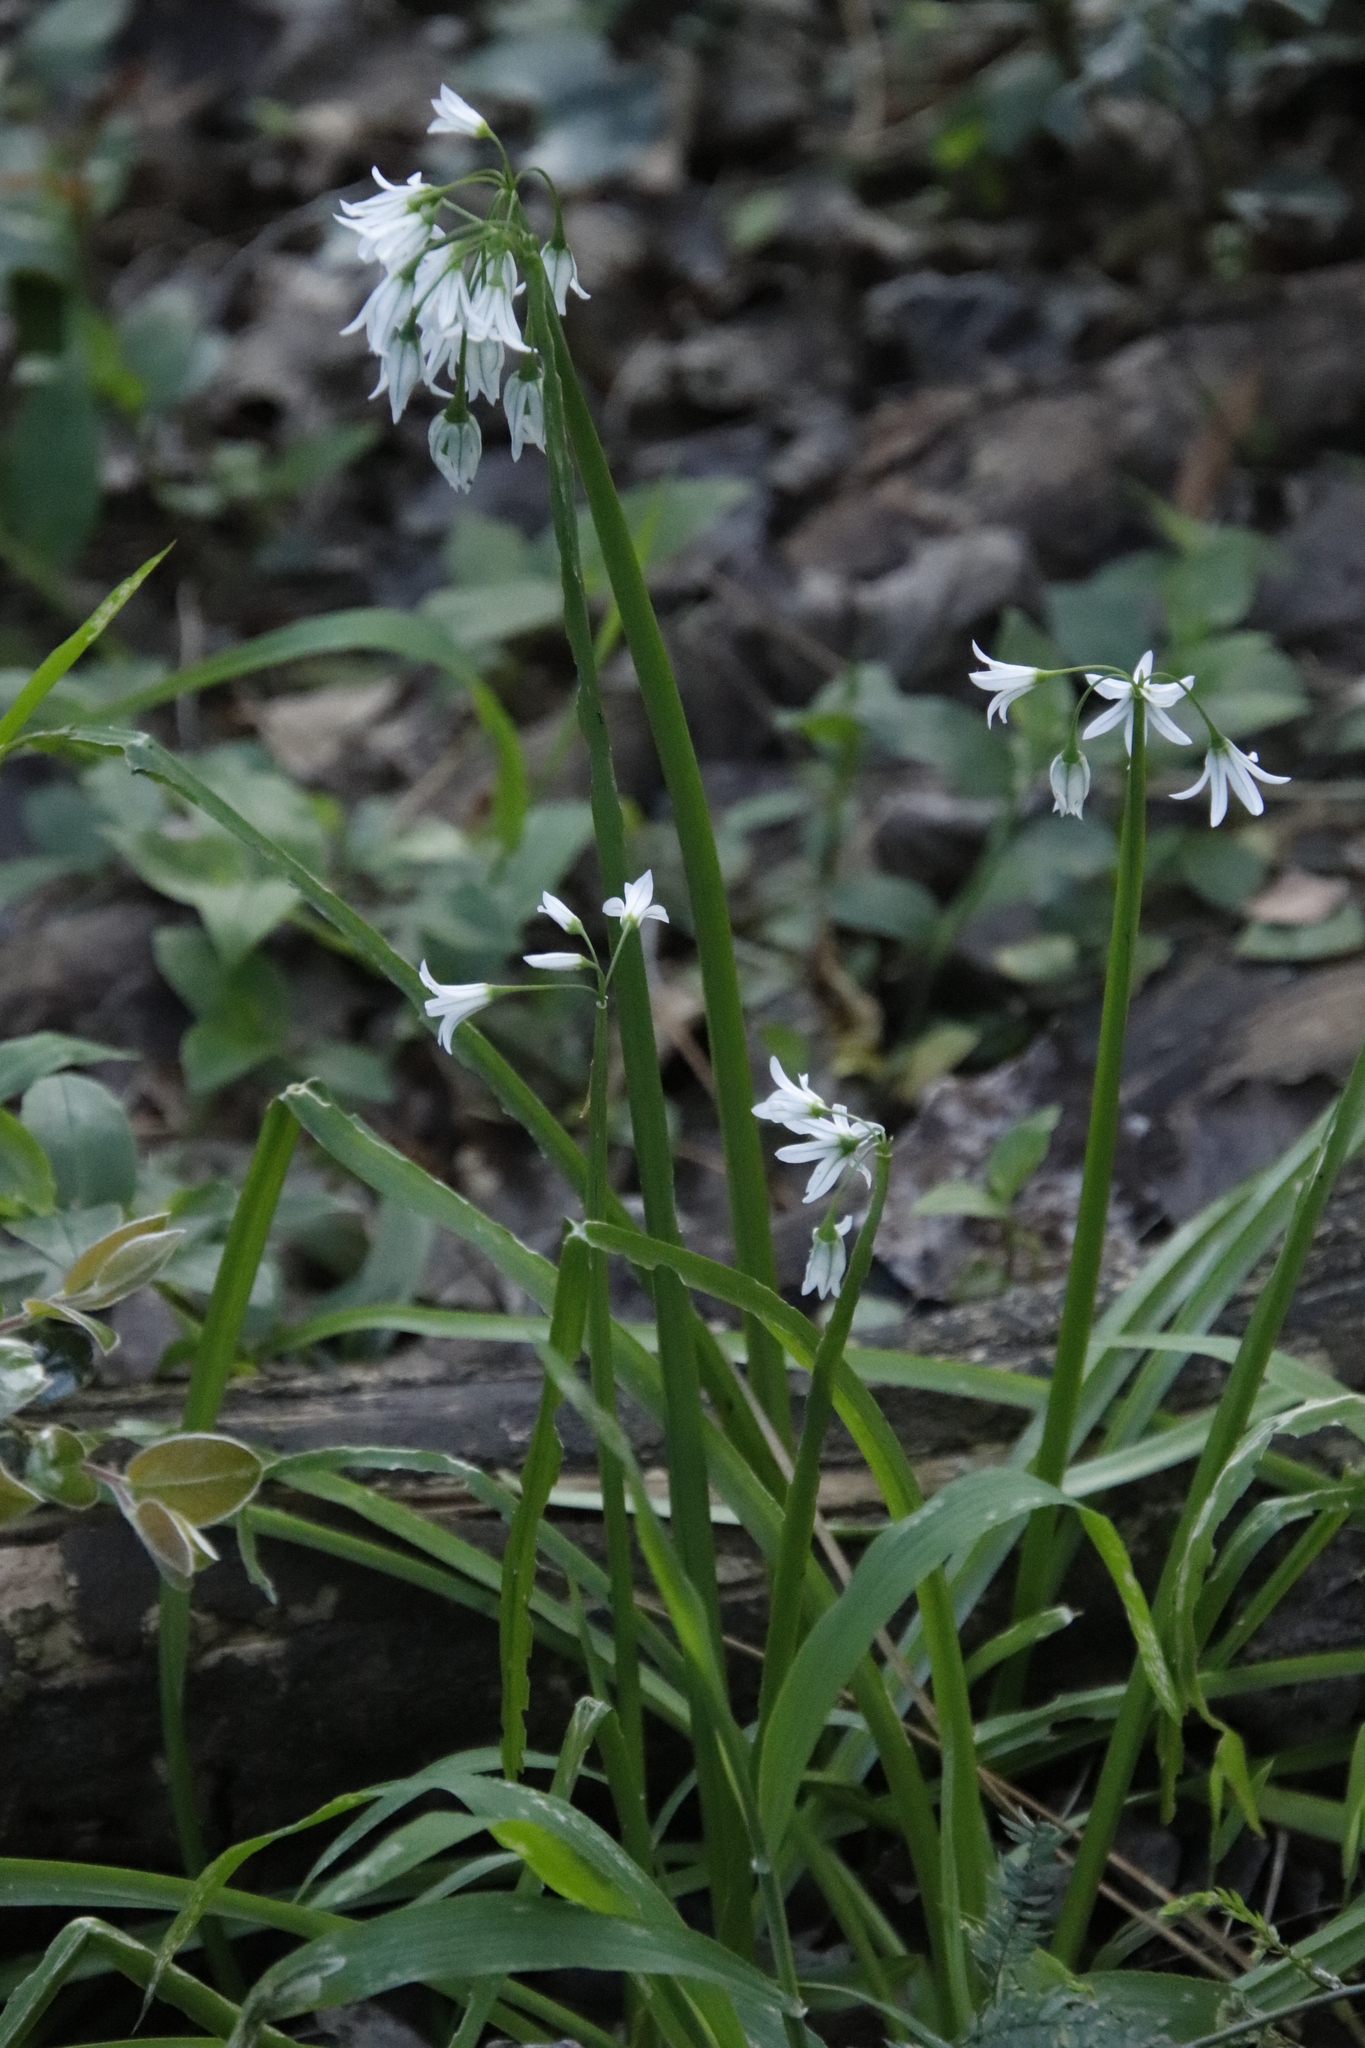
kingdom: Plantae
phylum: Tracheophyta
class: Liliopsida
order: Asparagales
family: Amaryllidaceae
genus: Allium
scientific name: Allium triquetrum
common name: Three-cornered garlic
